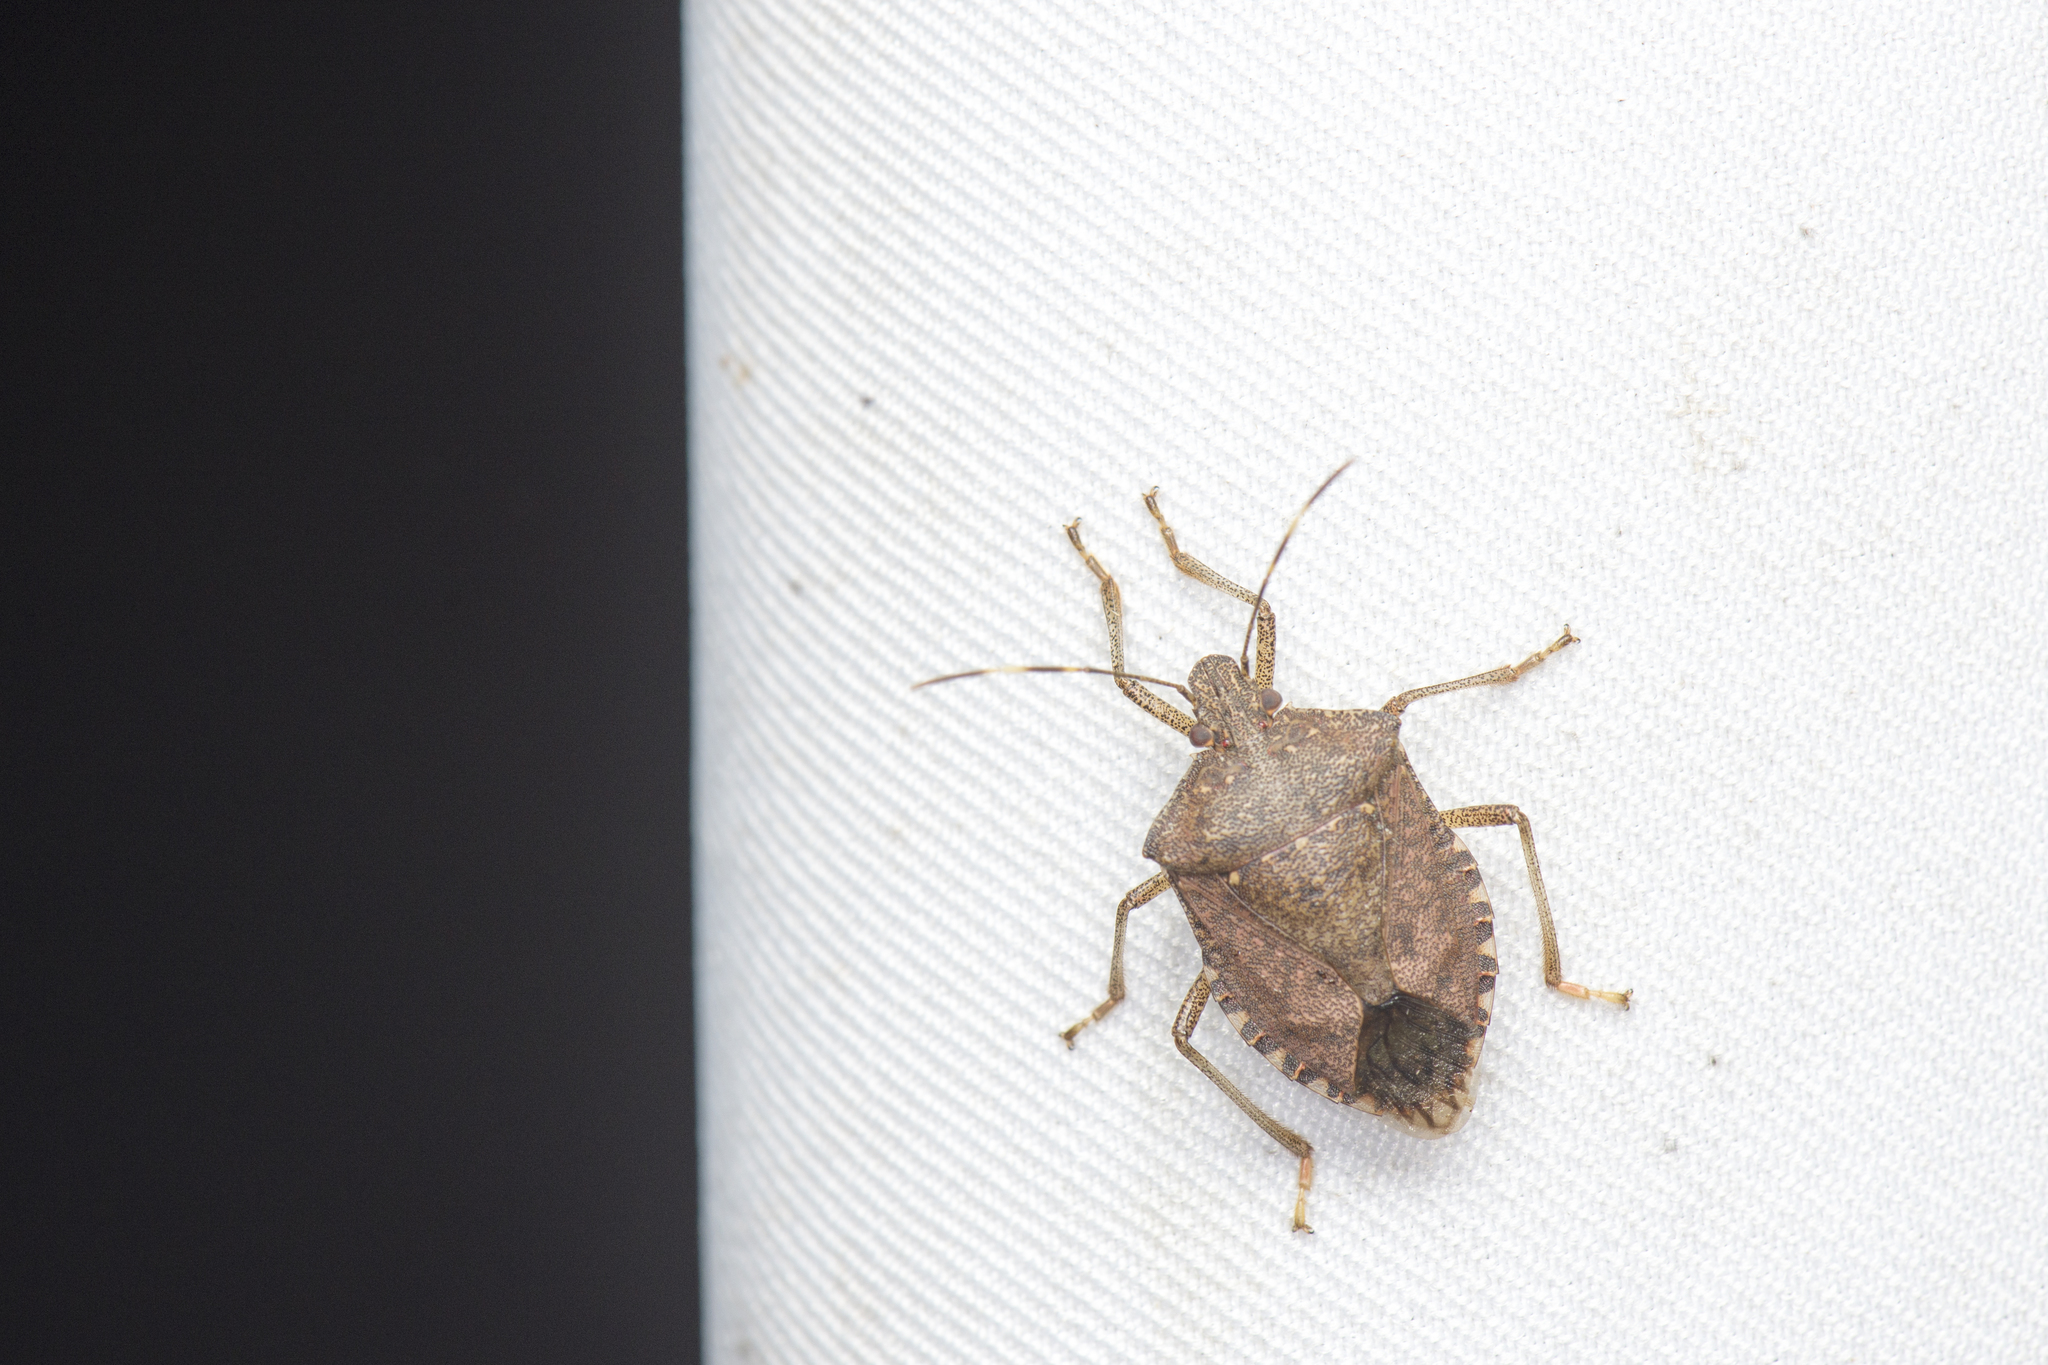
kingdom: Animalia
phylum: Arthropoda
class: Insecta
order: Hemiptera
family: Pentatomidae
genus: Halyomorpha
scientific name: Halyomorpha halys
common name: Brown marmorated stink bug
